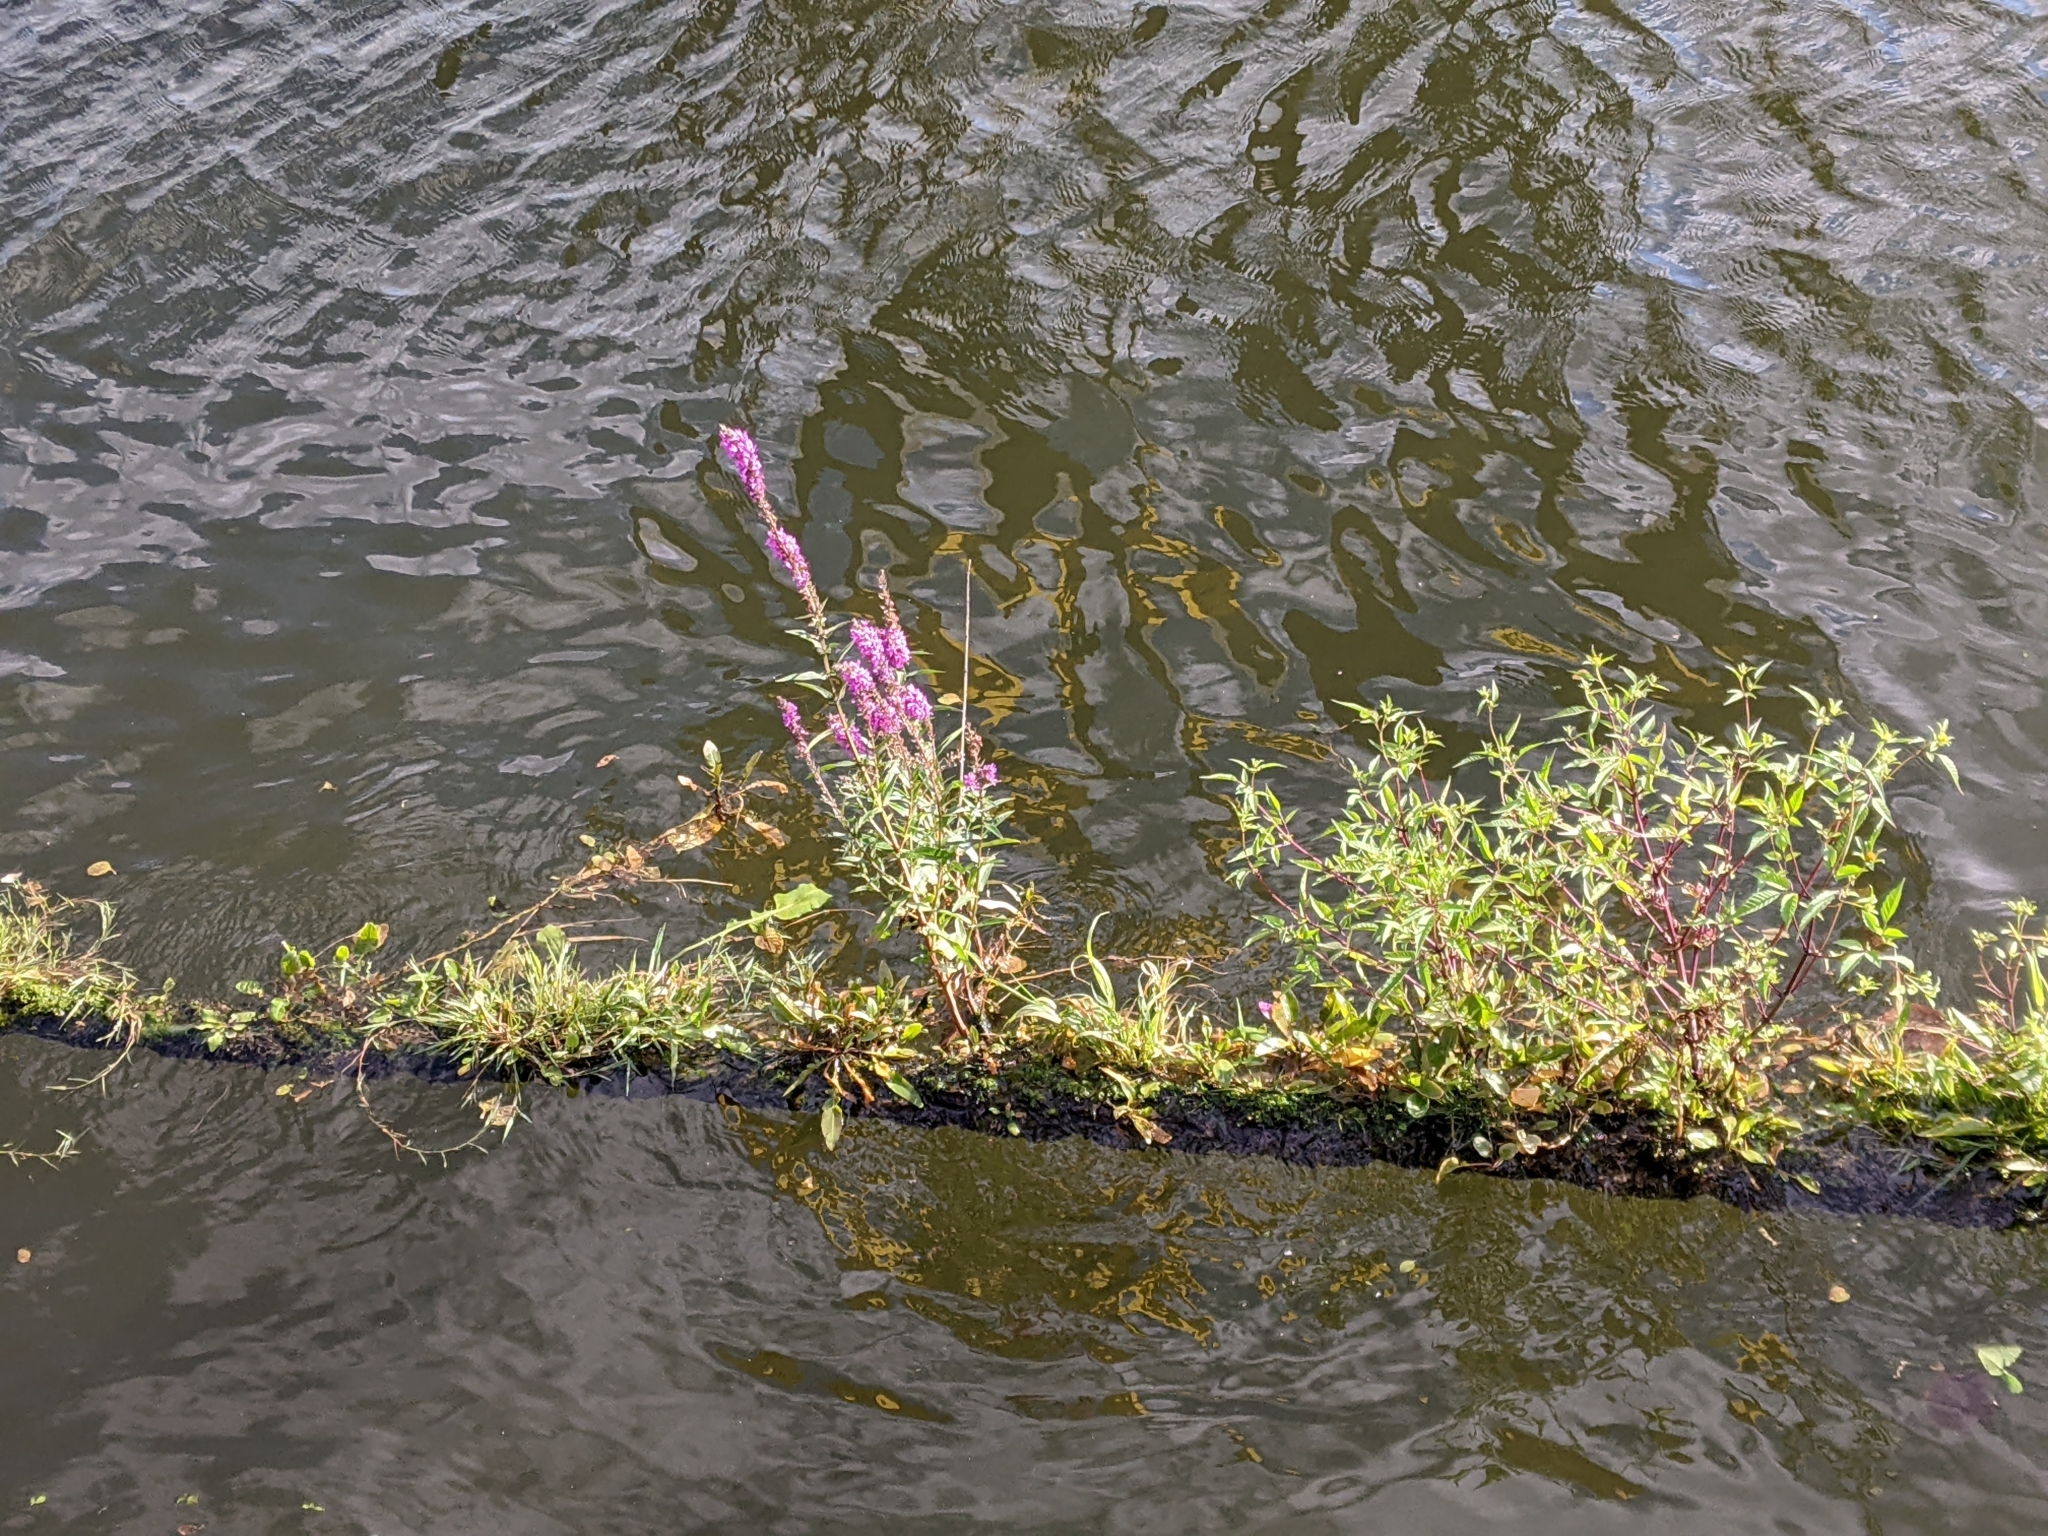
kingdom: Plantae
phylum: Tracheophyta
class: Magnoliopsida
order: Myrtales
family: Lythraceae
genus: Lythrum
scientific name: Lythrum salicaria
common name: Purple loosestrife
